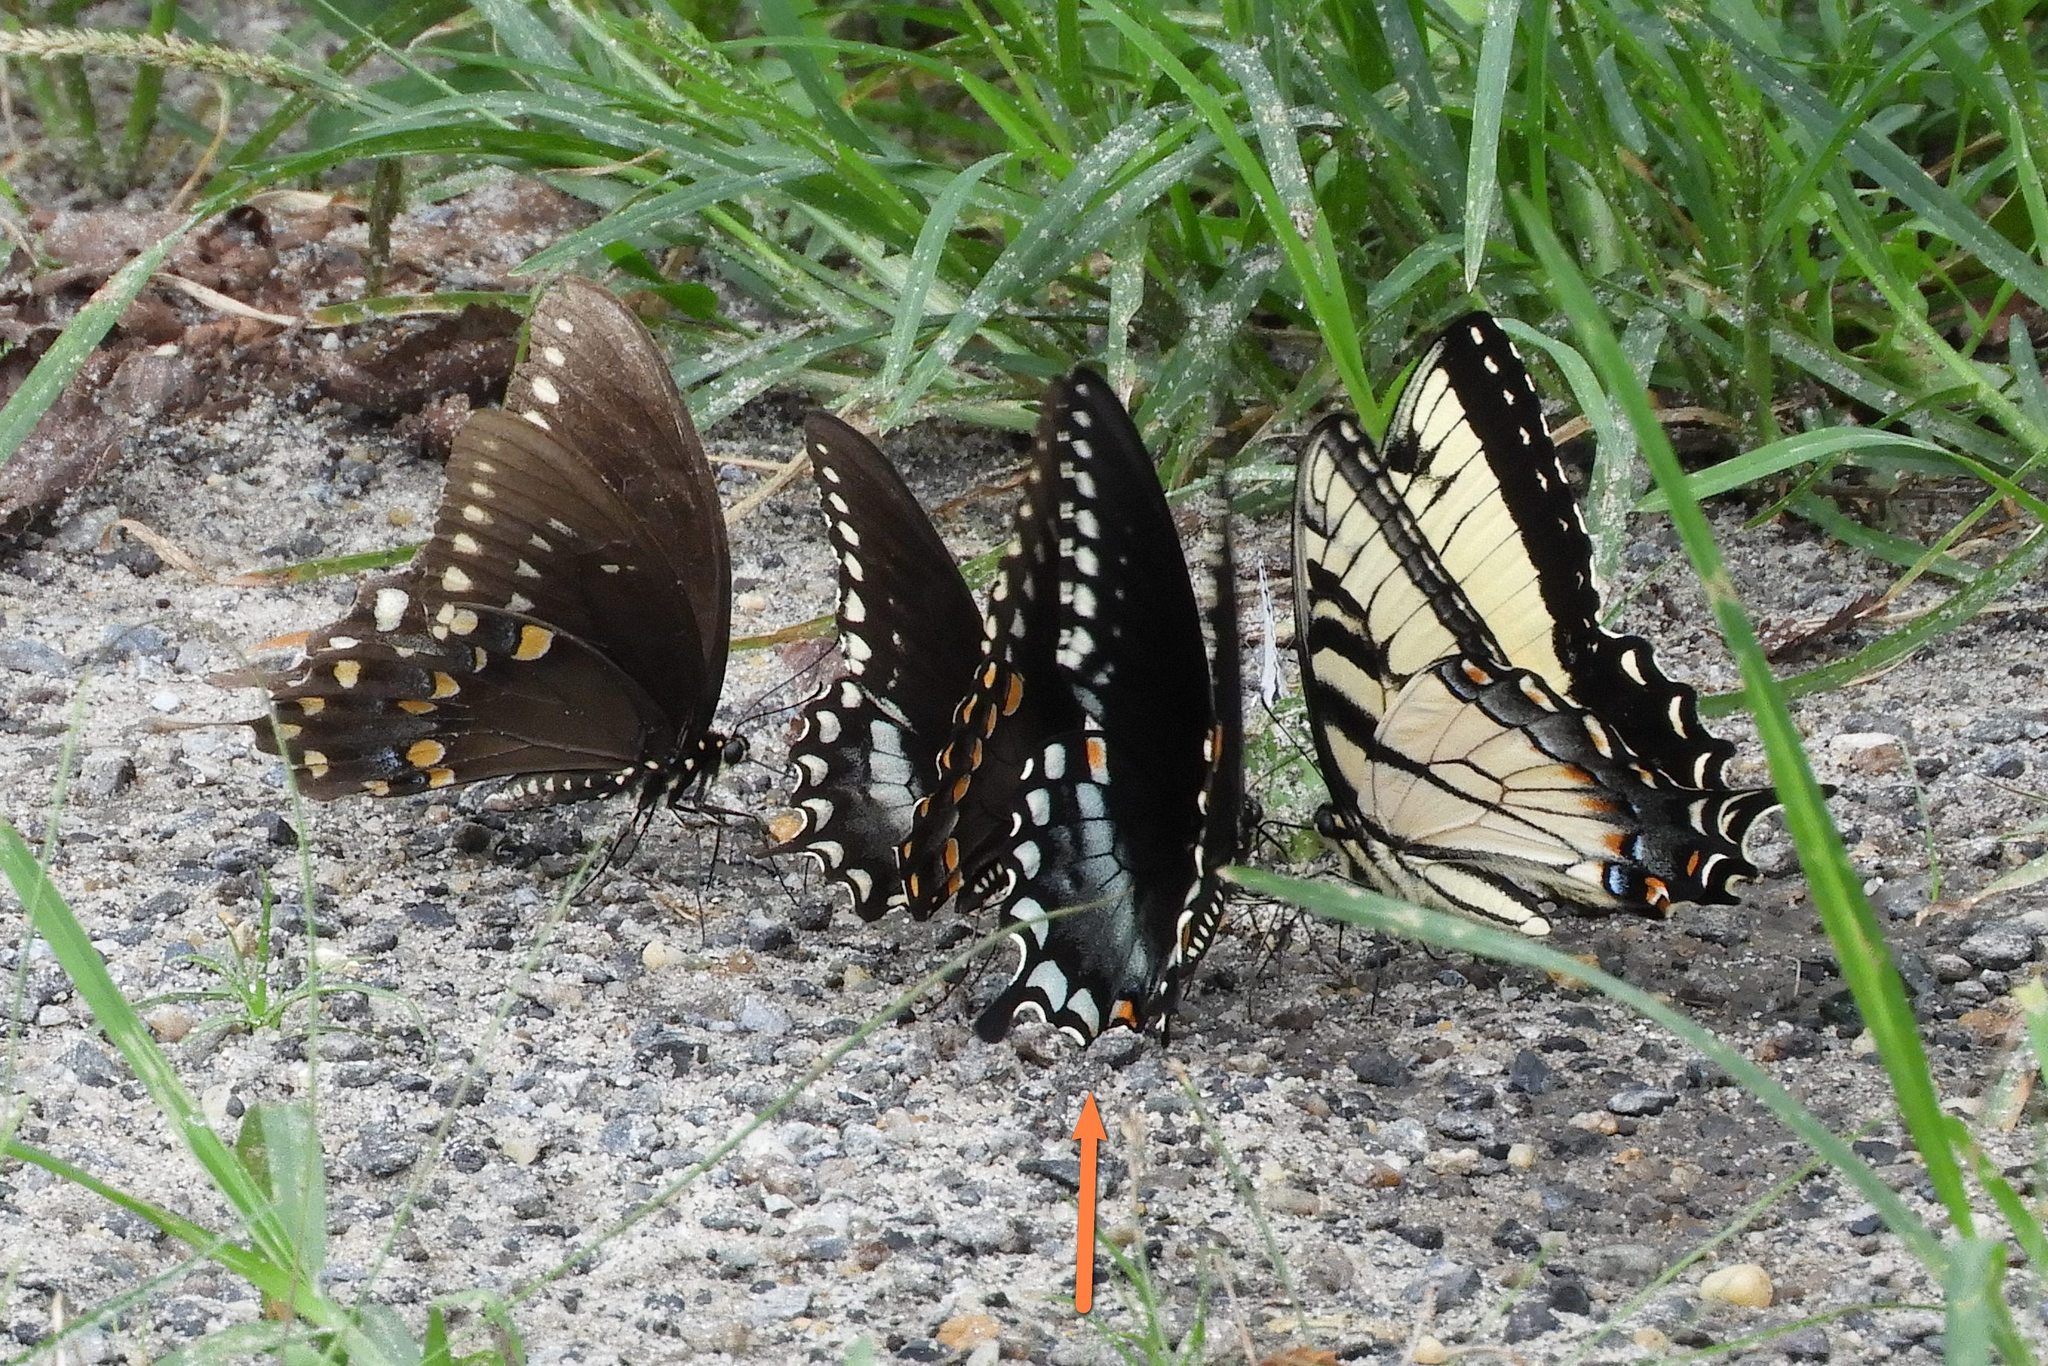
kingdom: Animalia
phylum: Arthropoda
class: Insecta
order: Lepidoptera
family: Papilionidae
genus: Papilio
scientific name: Papilio troilus
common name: Spicebush swallowtail
